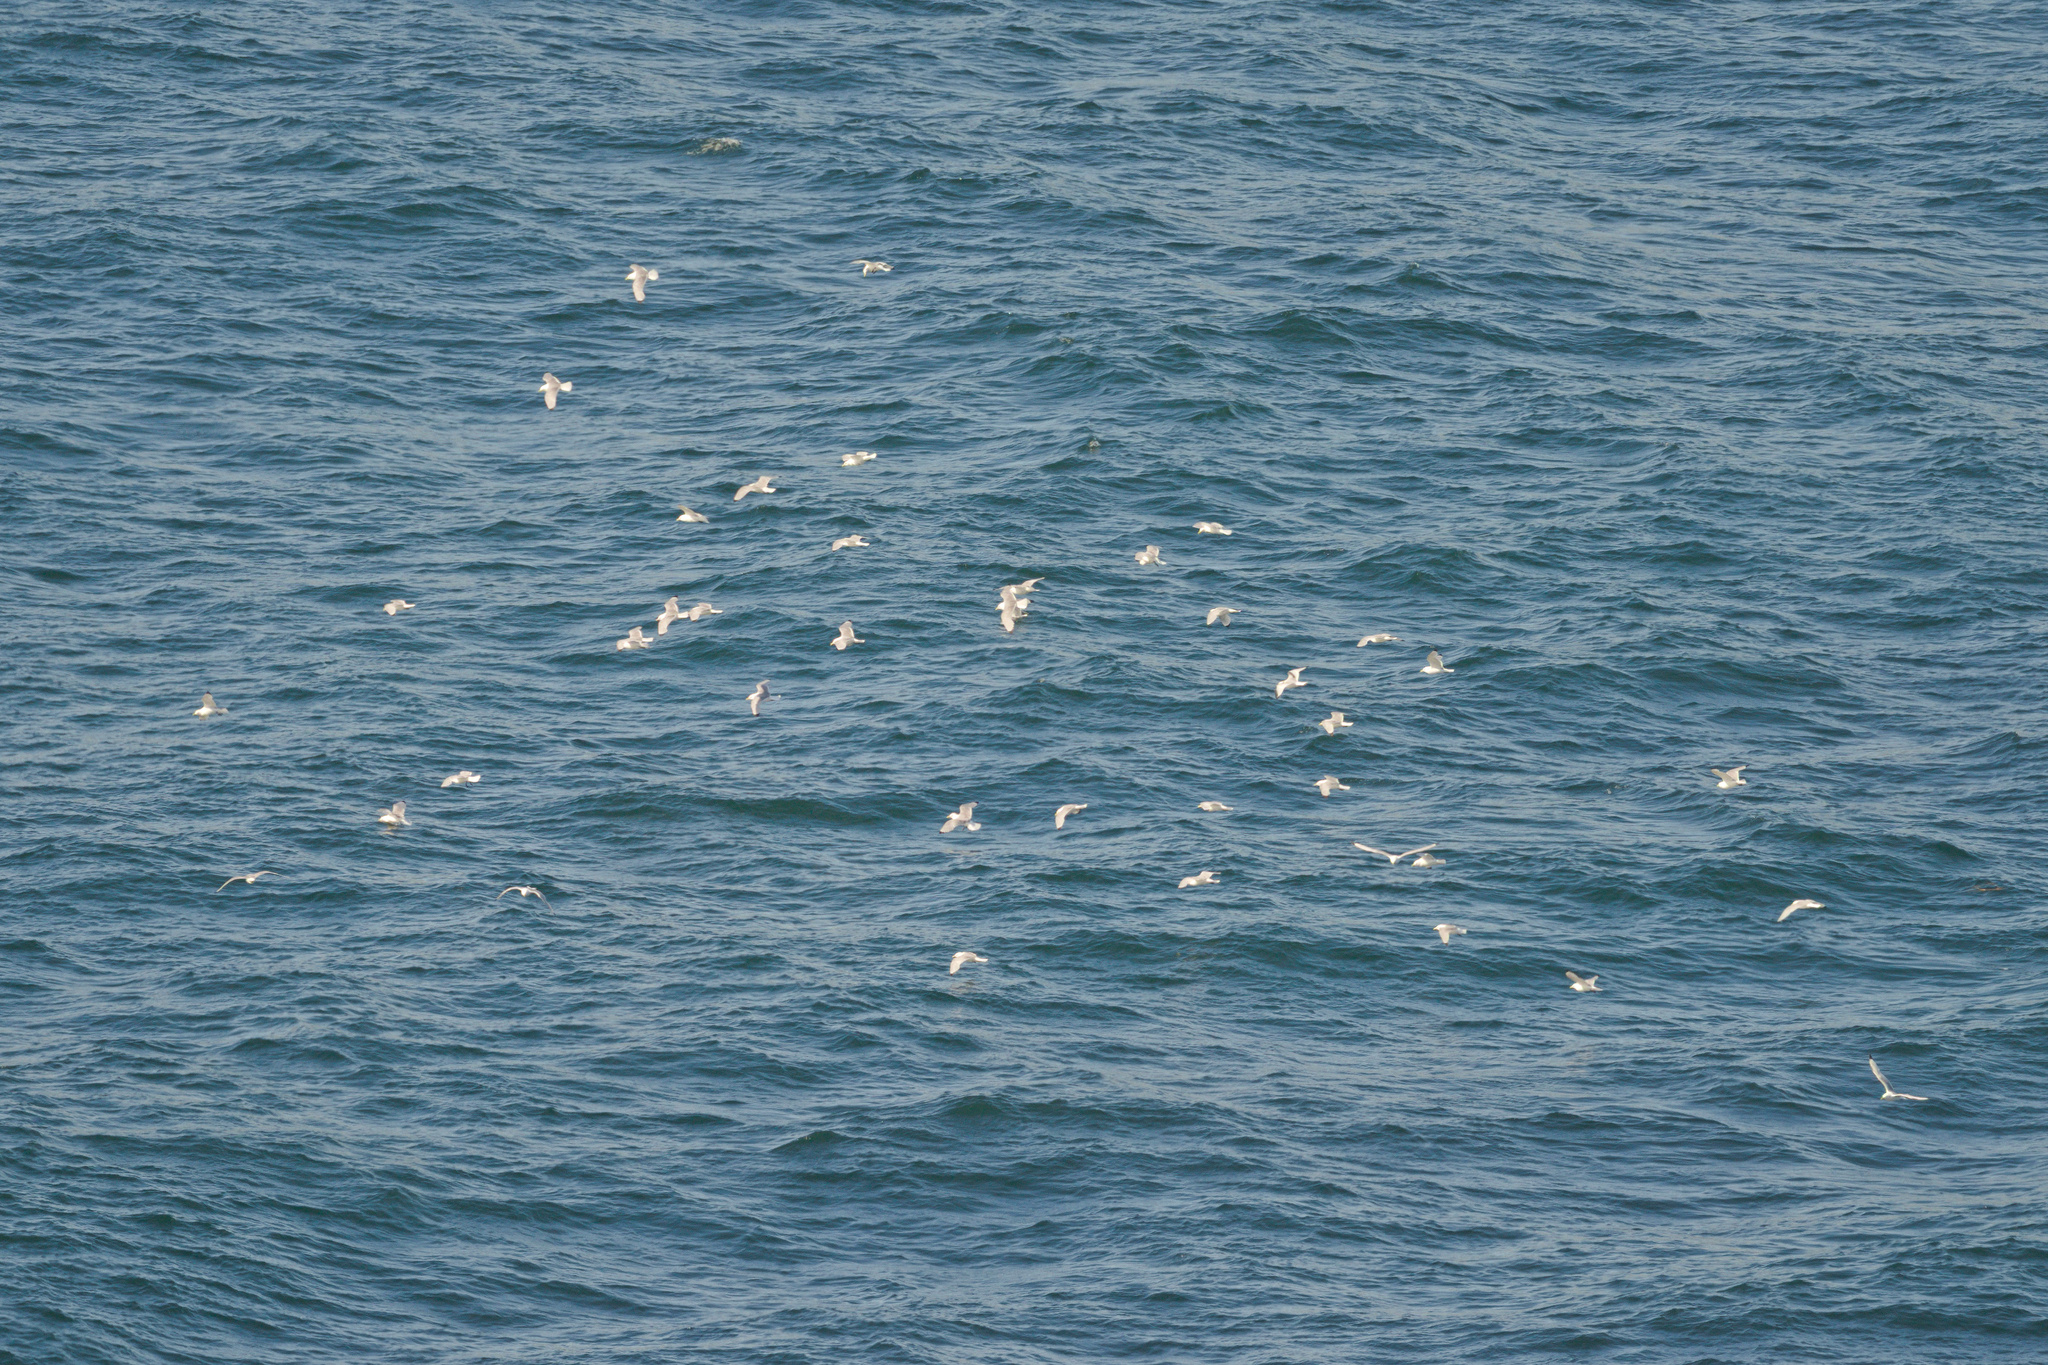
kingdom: Animalia
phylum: Chordata
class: Aves
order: Charadriiformes
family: Laridae
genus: Rissa
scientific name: Rissa tridactyla
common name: Black-legged kittiwake
